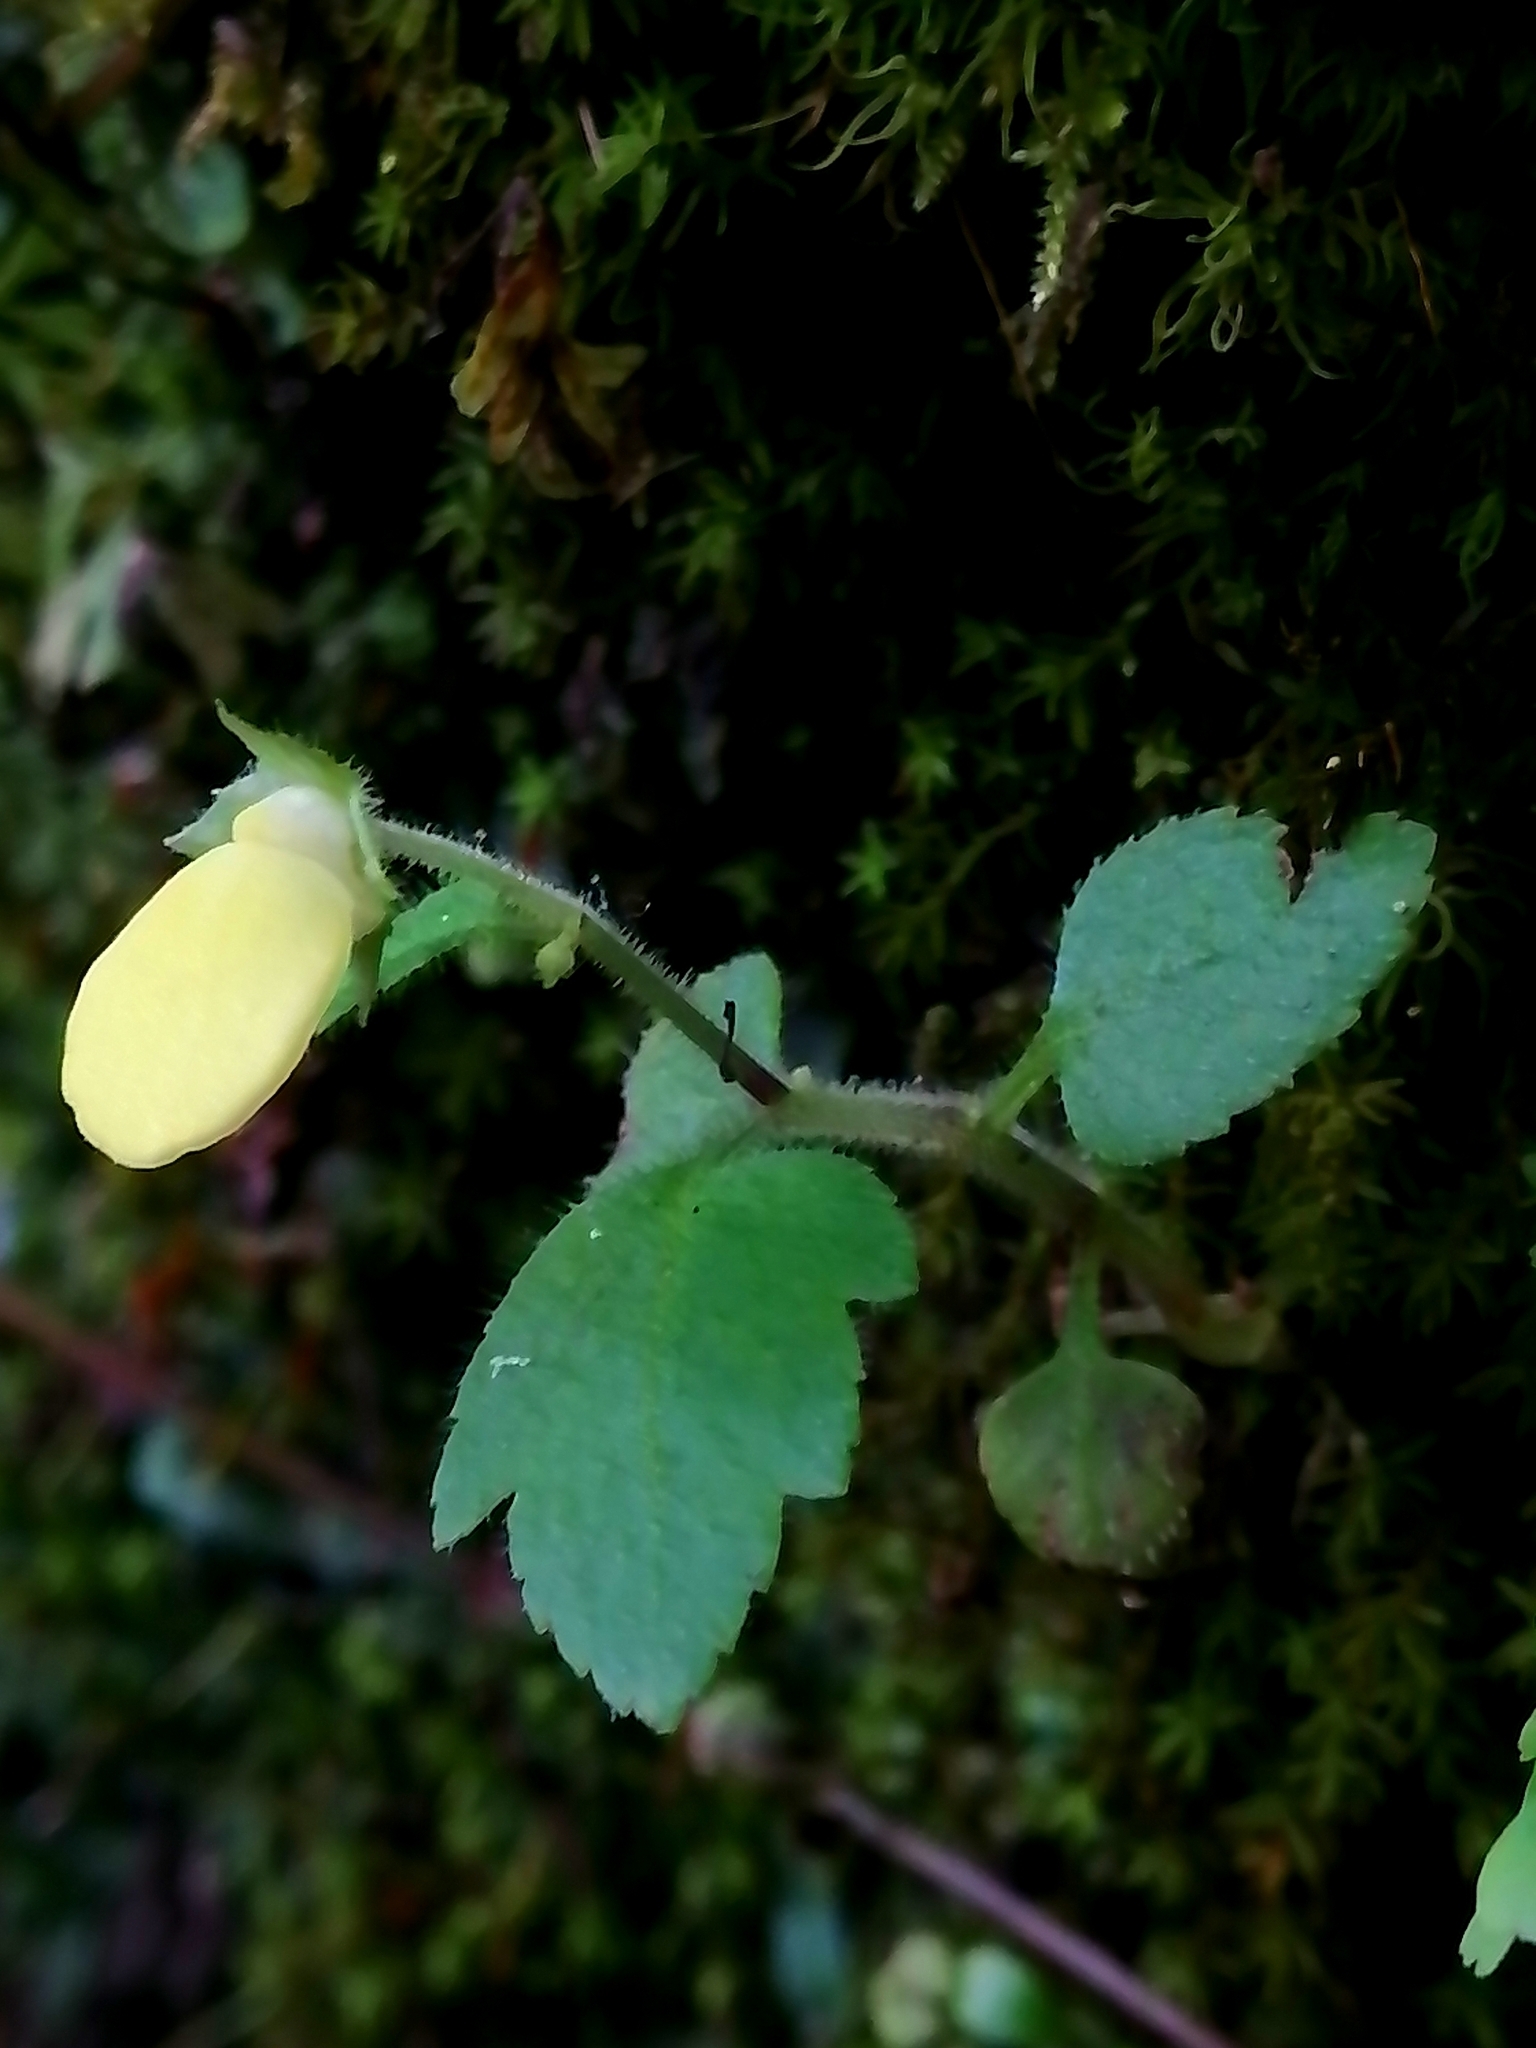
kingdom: Plantae
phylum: Tracheophyta
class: Magnoliopsida
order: Lamiales
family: Calceolariaceae
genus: Calceolaria
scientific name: Calceolaria tripartita
